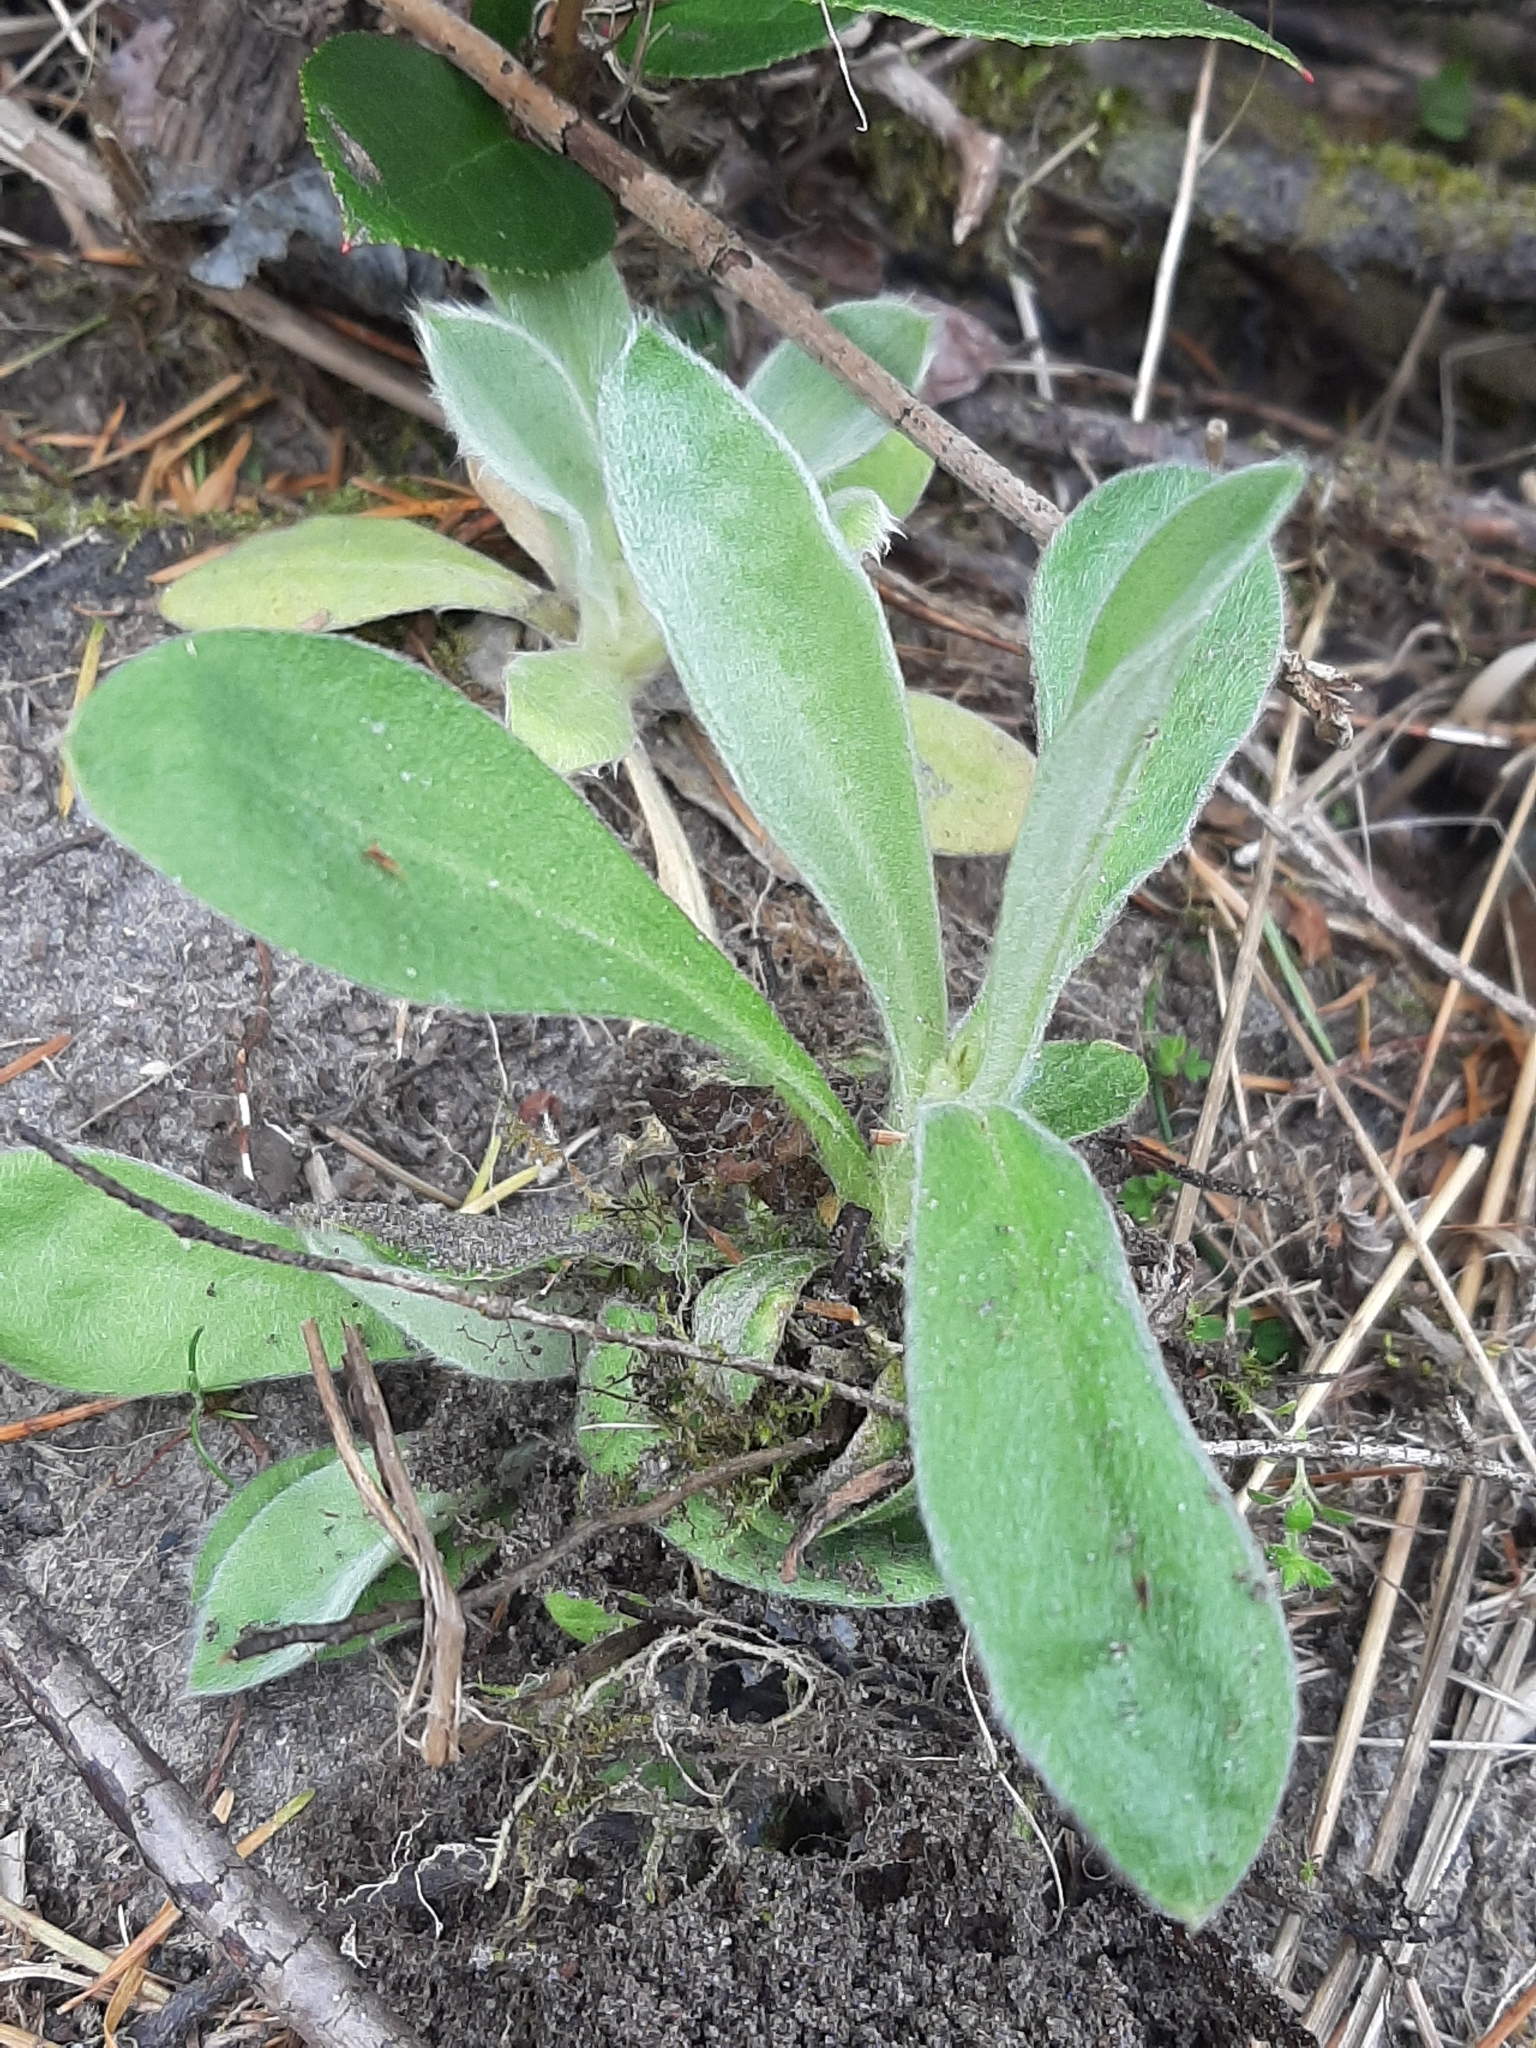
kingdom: Plantae
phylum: Tracheophyta
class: Magnoliopsida
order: Caryophyllales
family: Caryophyllaceae
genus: Silene
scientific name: Silene coronaria
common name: Rose campion
